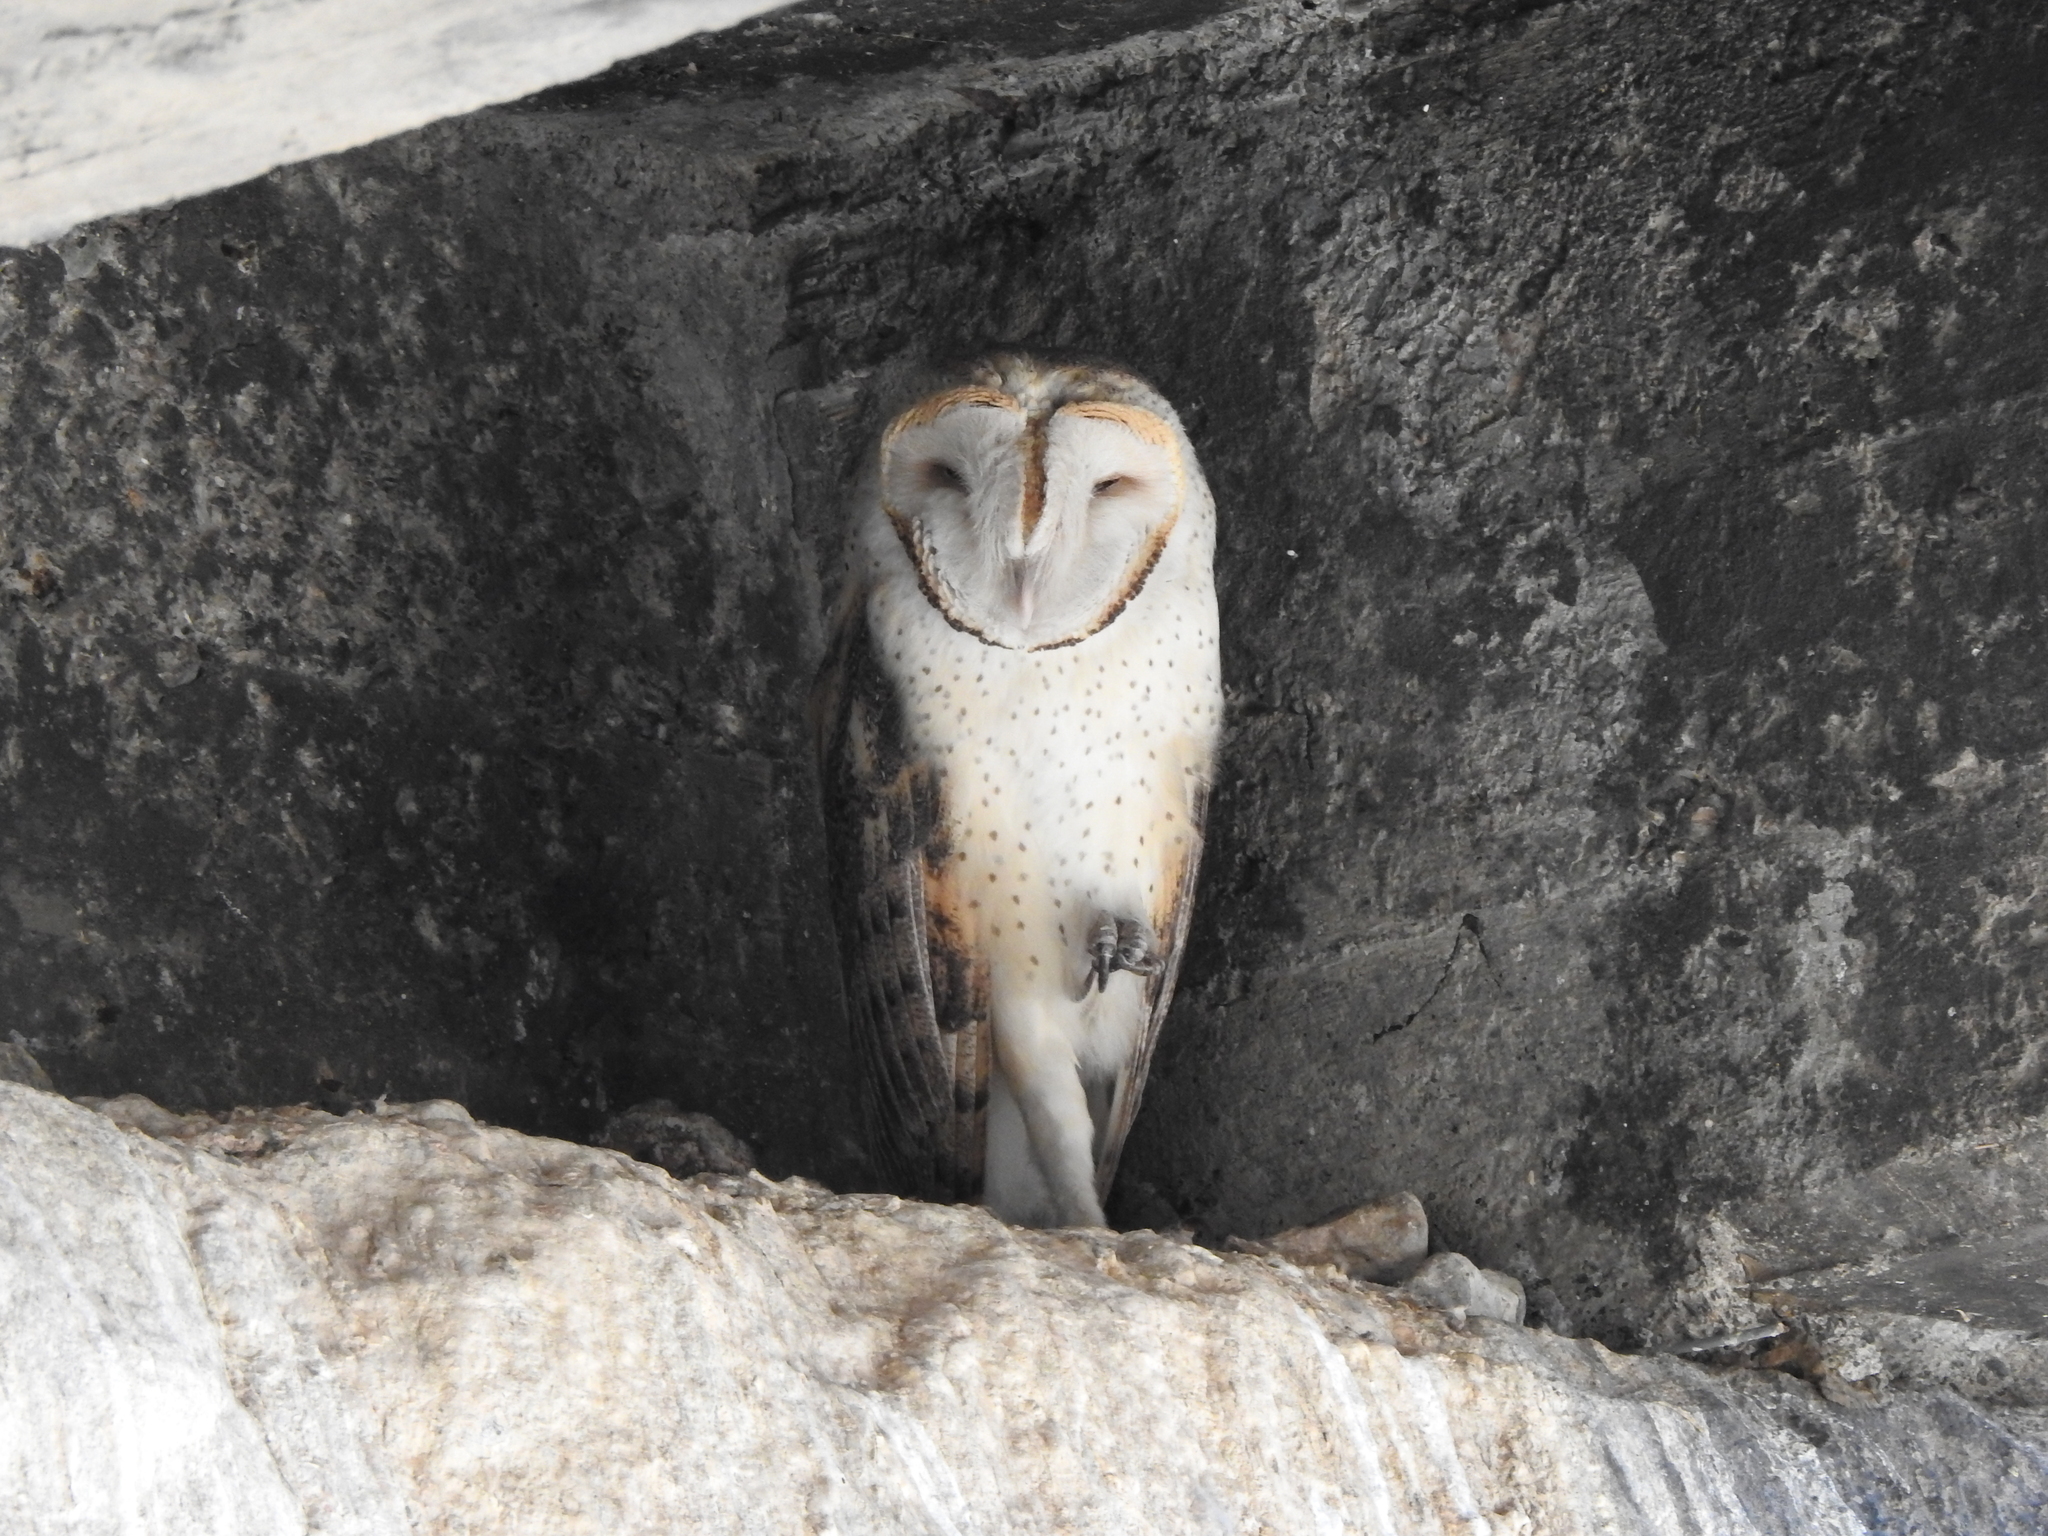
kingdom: Animalia
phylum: Chordata
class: Aves
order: Strigiformes
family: Tytonidae
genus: Tyto
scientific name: Tyto alba
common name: Barn owl
